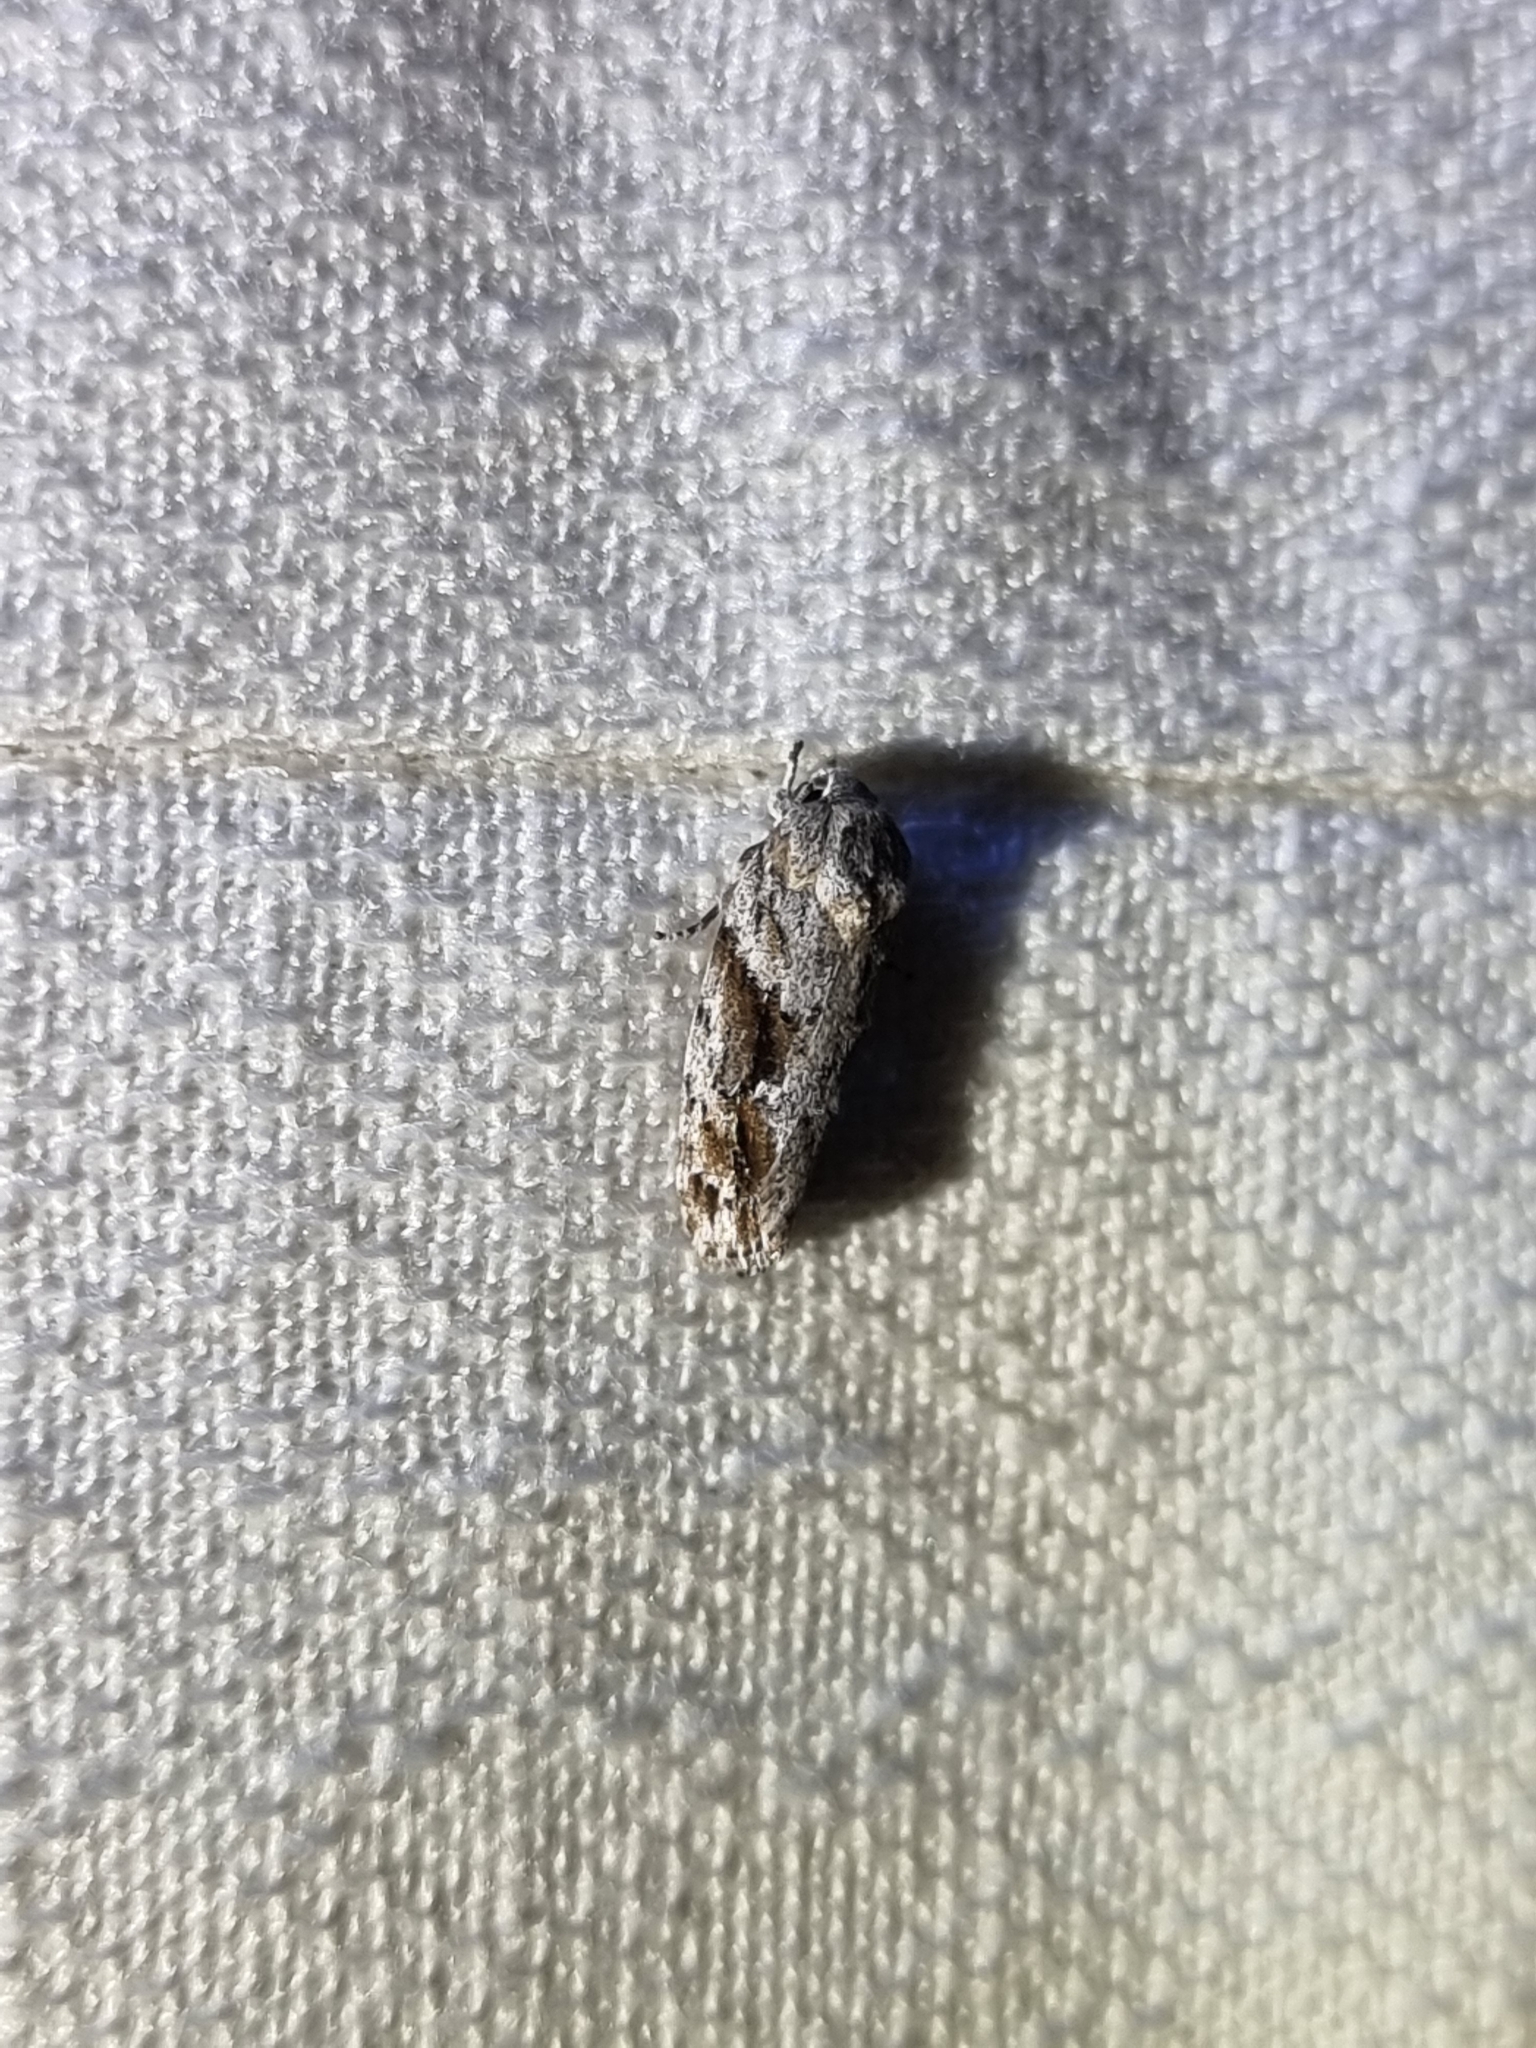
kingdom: Animalia
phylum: Arthropoda
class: Insecta
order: Lepidoptera
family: Depressariidae
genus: Agriophara
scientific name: Agriophara confertella
